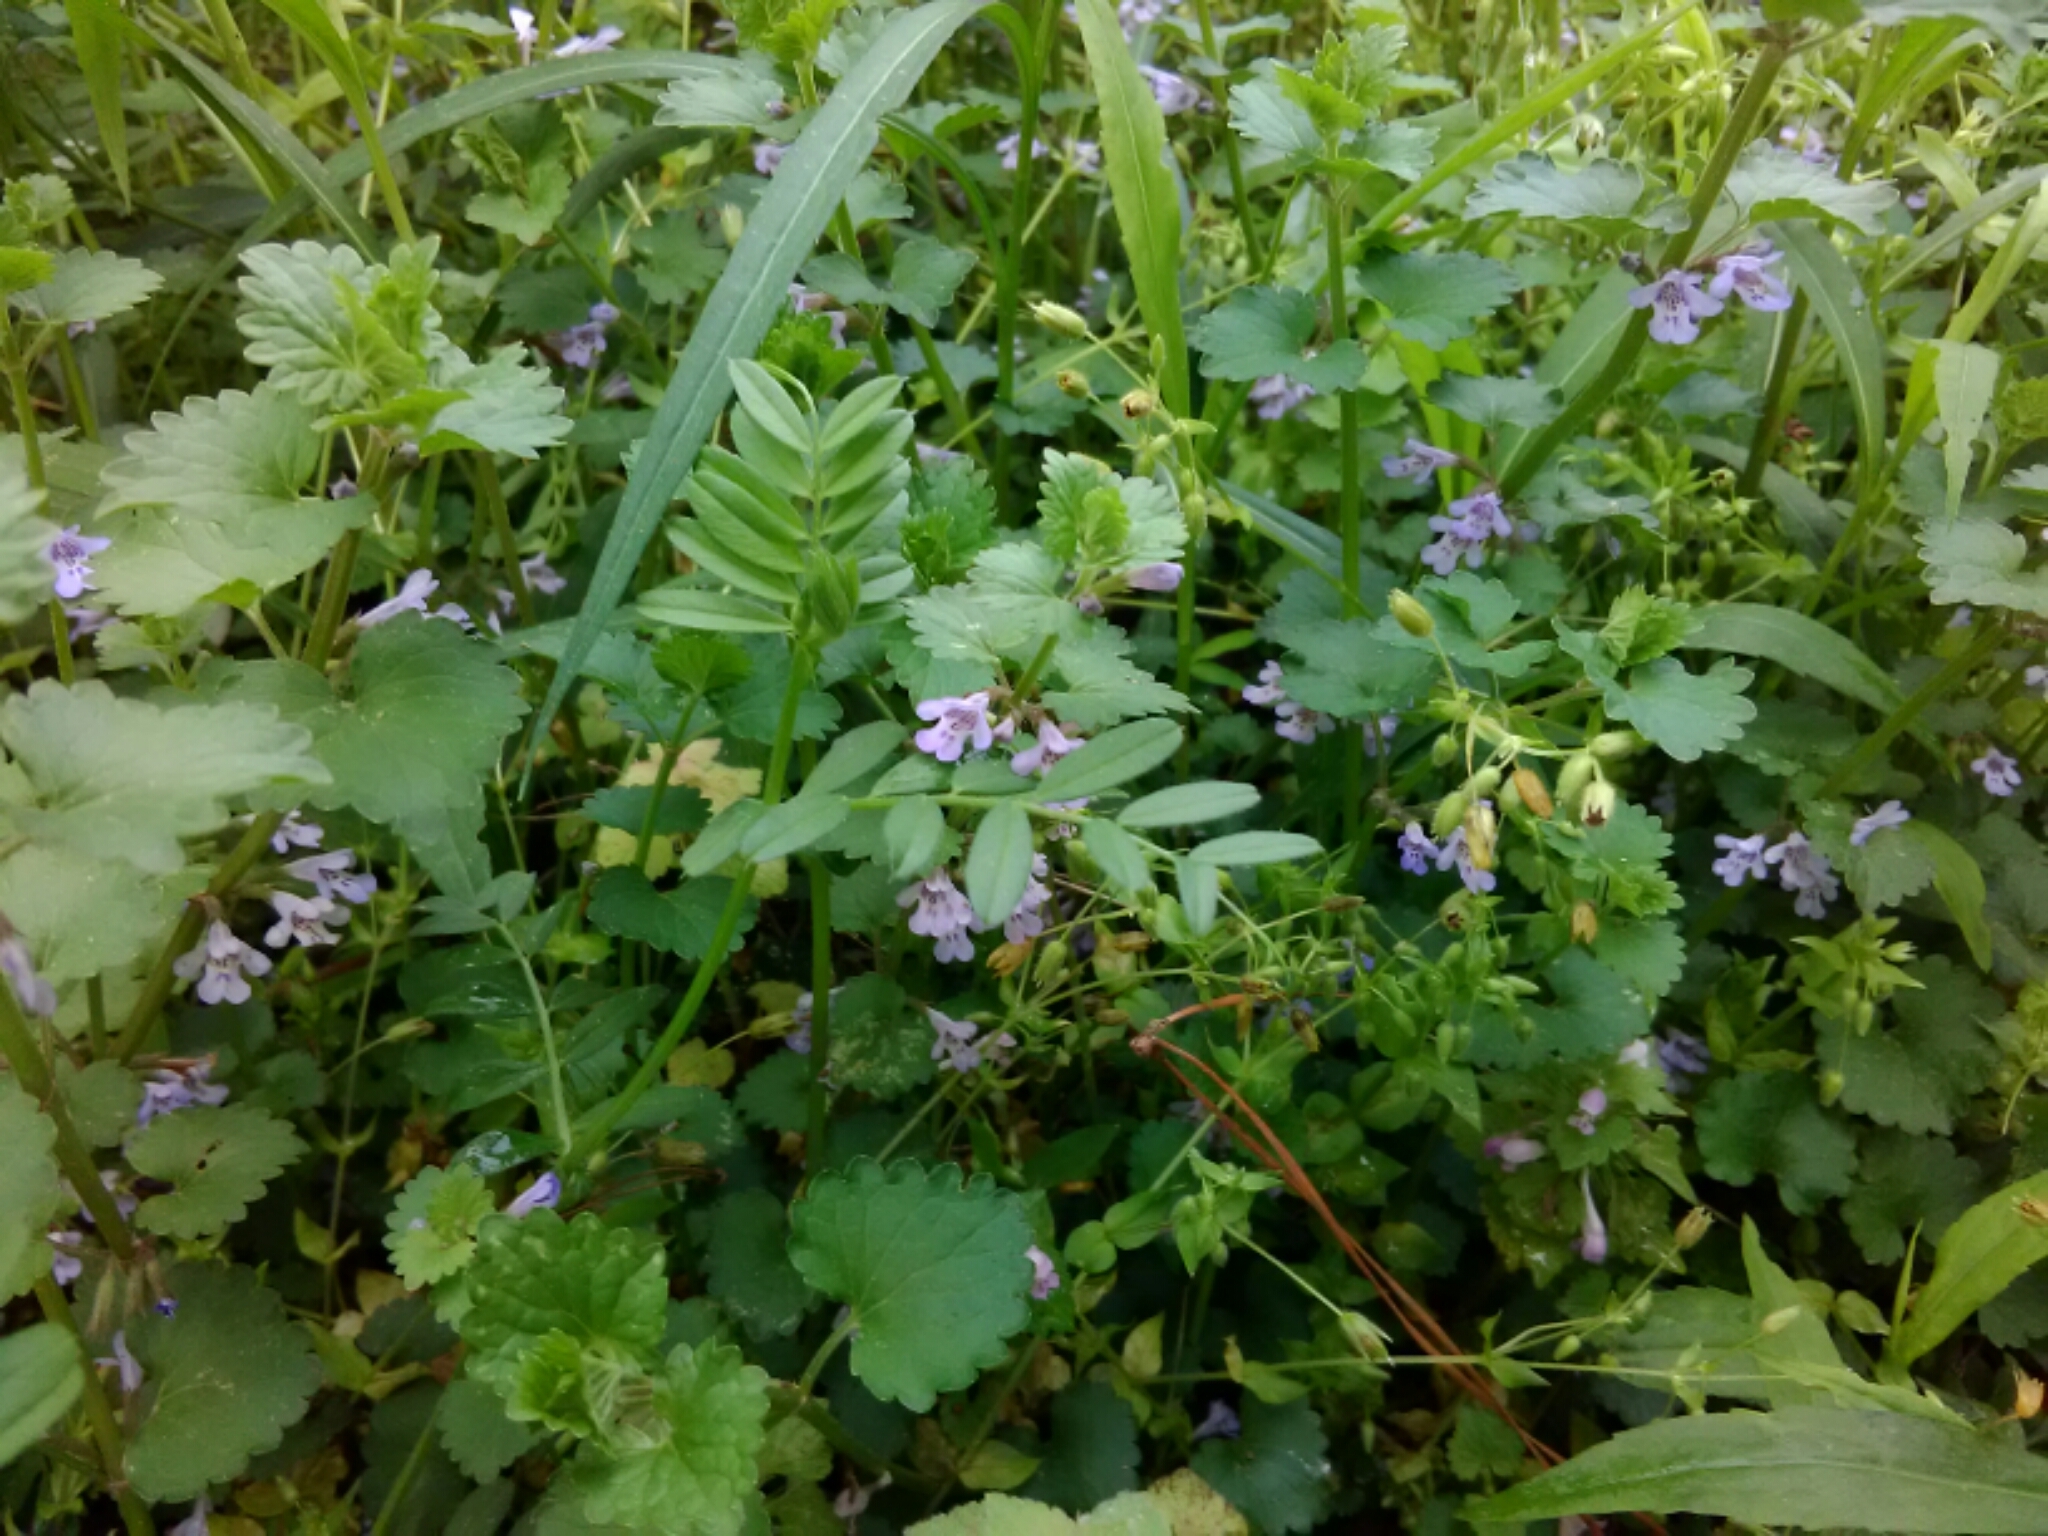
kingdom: Plantae
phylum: Tracheophyta
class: Magnoliopsida
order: Lamiales
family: Lamiaceae
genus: Glechoma
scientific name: Glechoma hederacea
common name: Ground ivy
